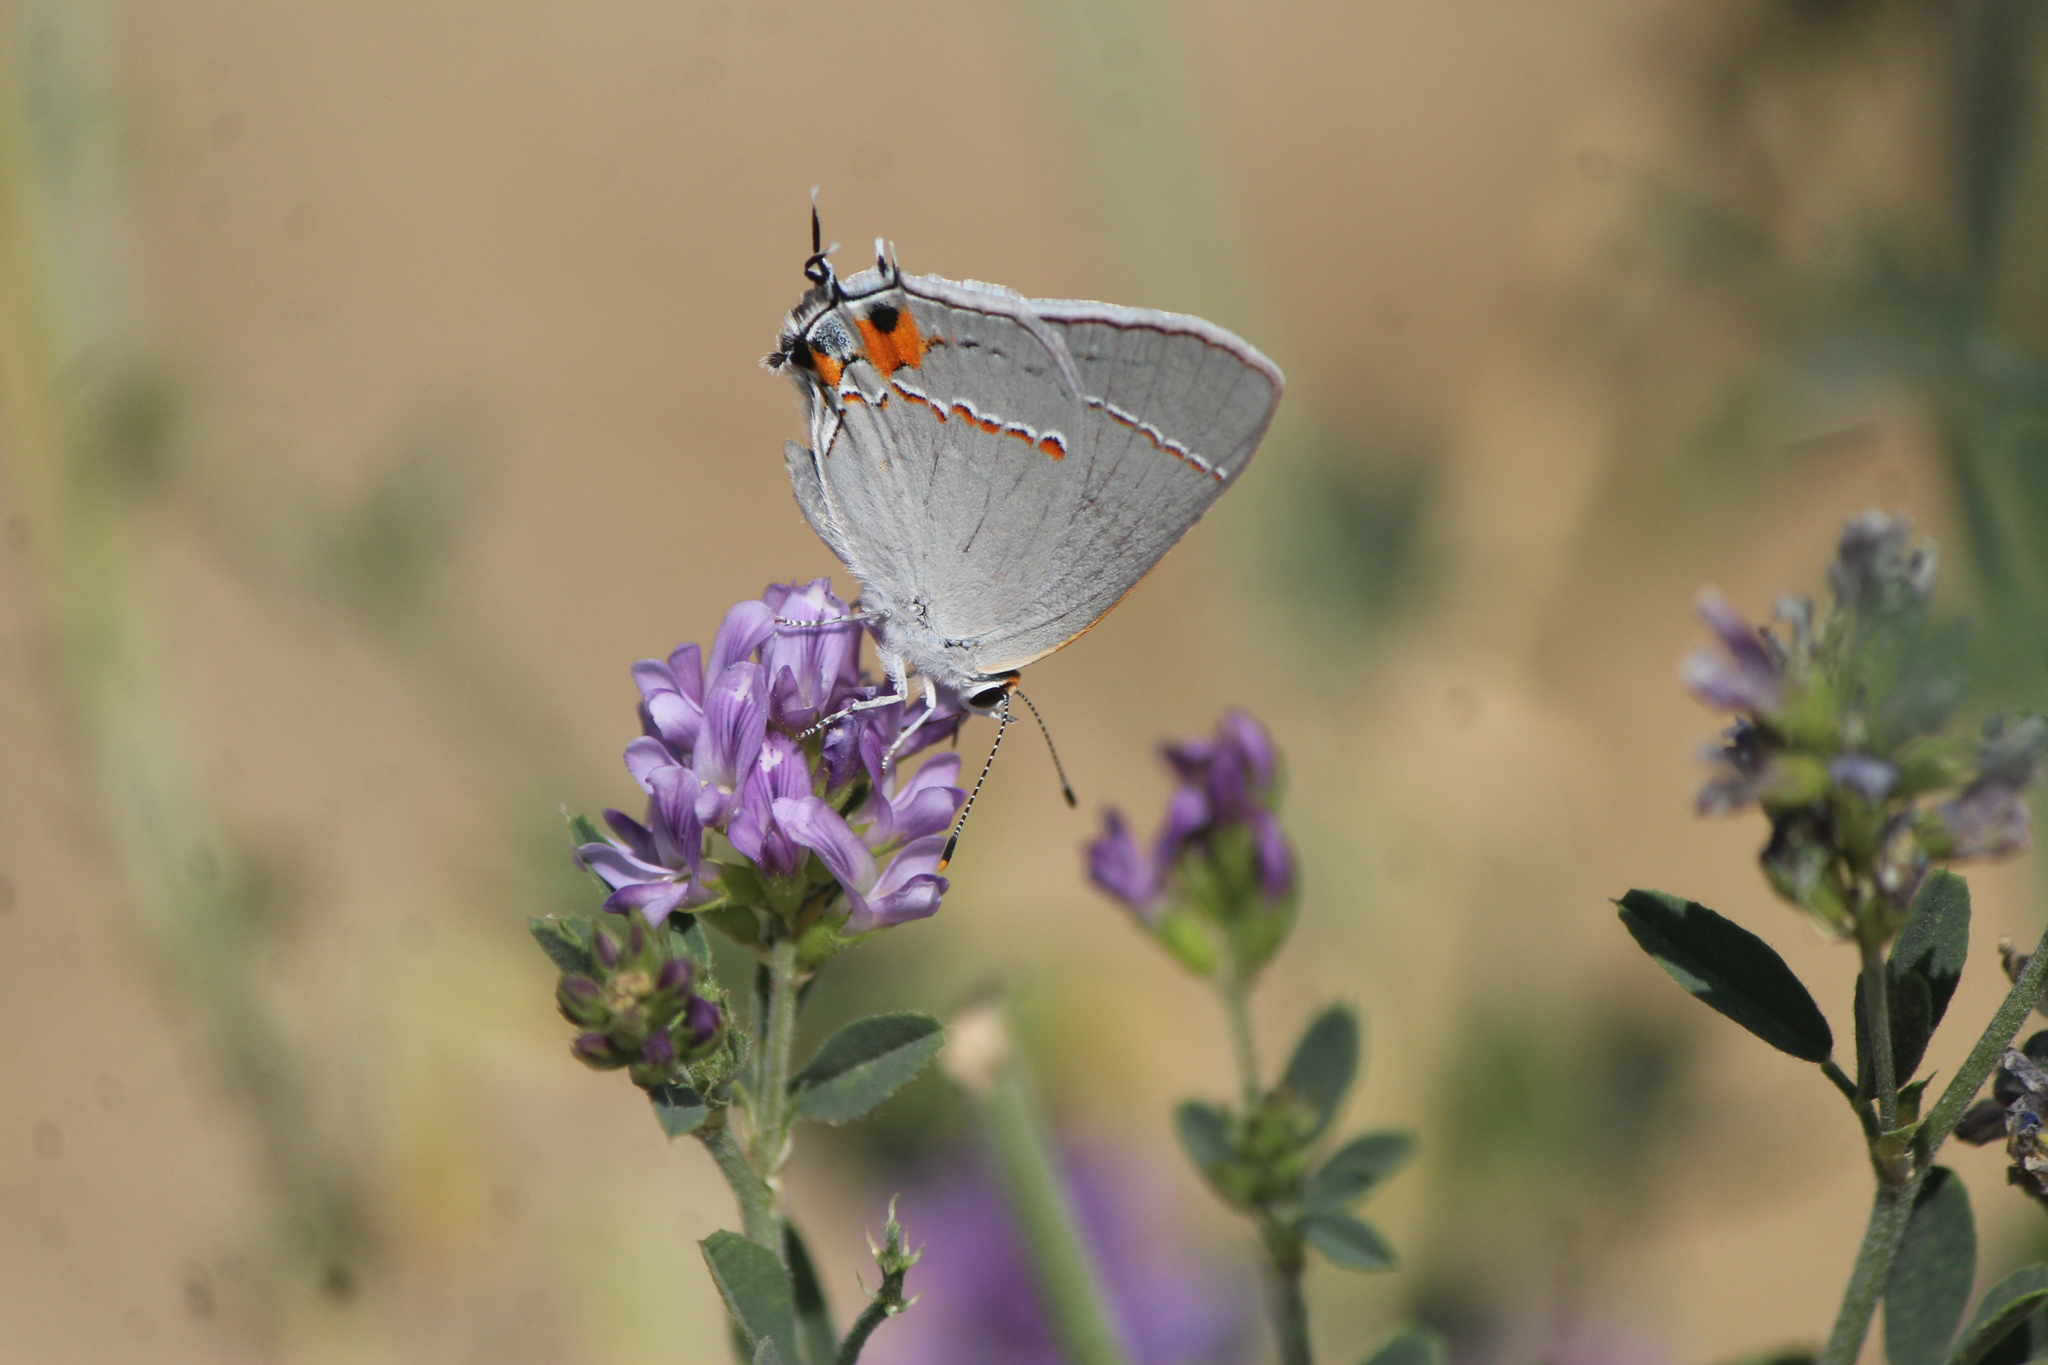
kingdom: Animalia
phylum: Arthropoda
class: Insecta
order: Lepidoptera
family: Lycaenidae
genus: Strymon
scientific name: Strymon melinus
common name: Gray hairstreak
